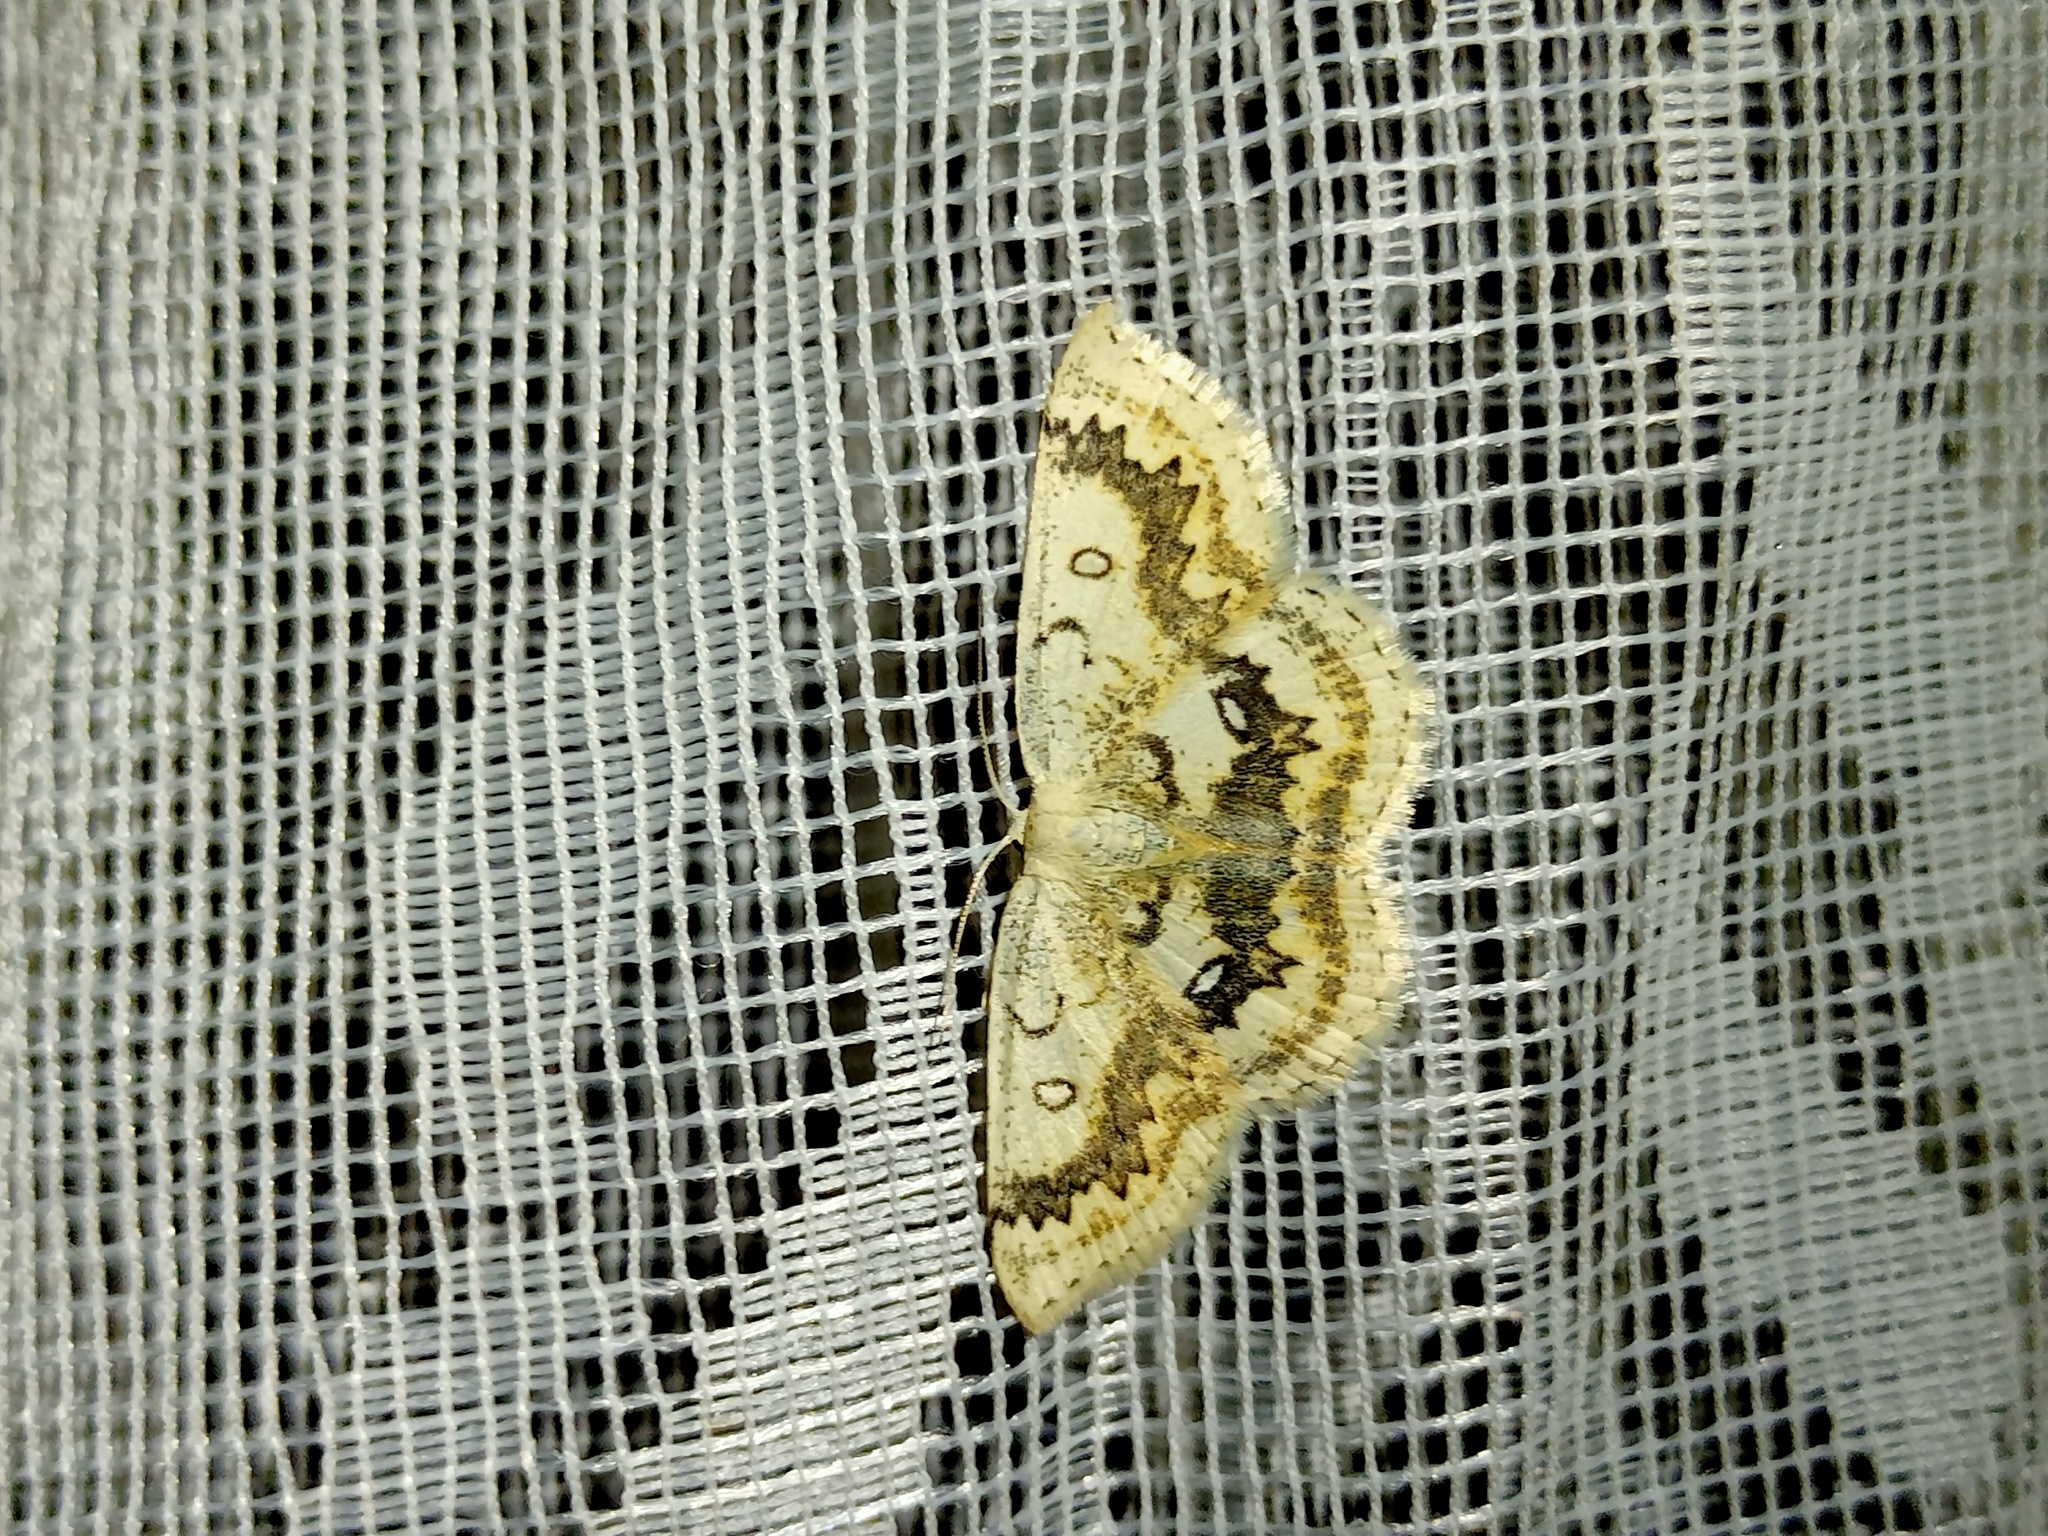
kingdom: Animalia
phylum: Arthropoda
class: Insecta
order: Lepidoptera
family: Geometridae
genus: Cyclophora
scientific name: Cyclophora annularia
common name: Mocha
